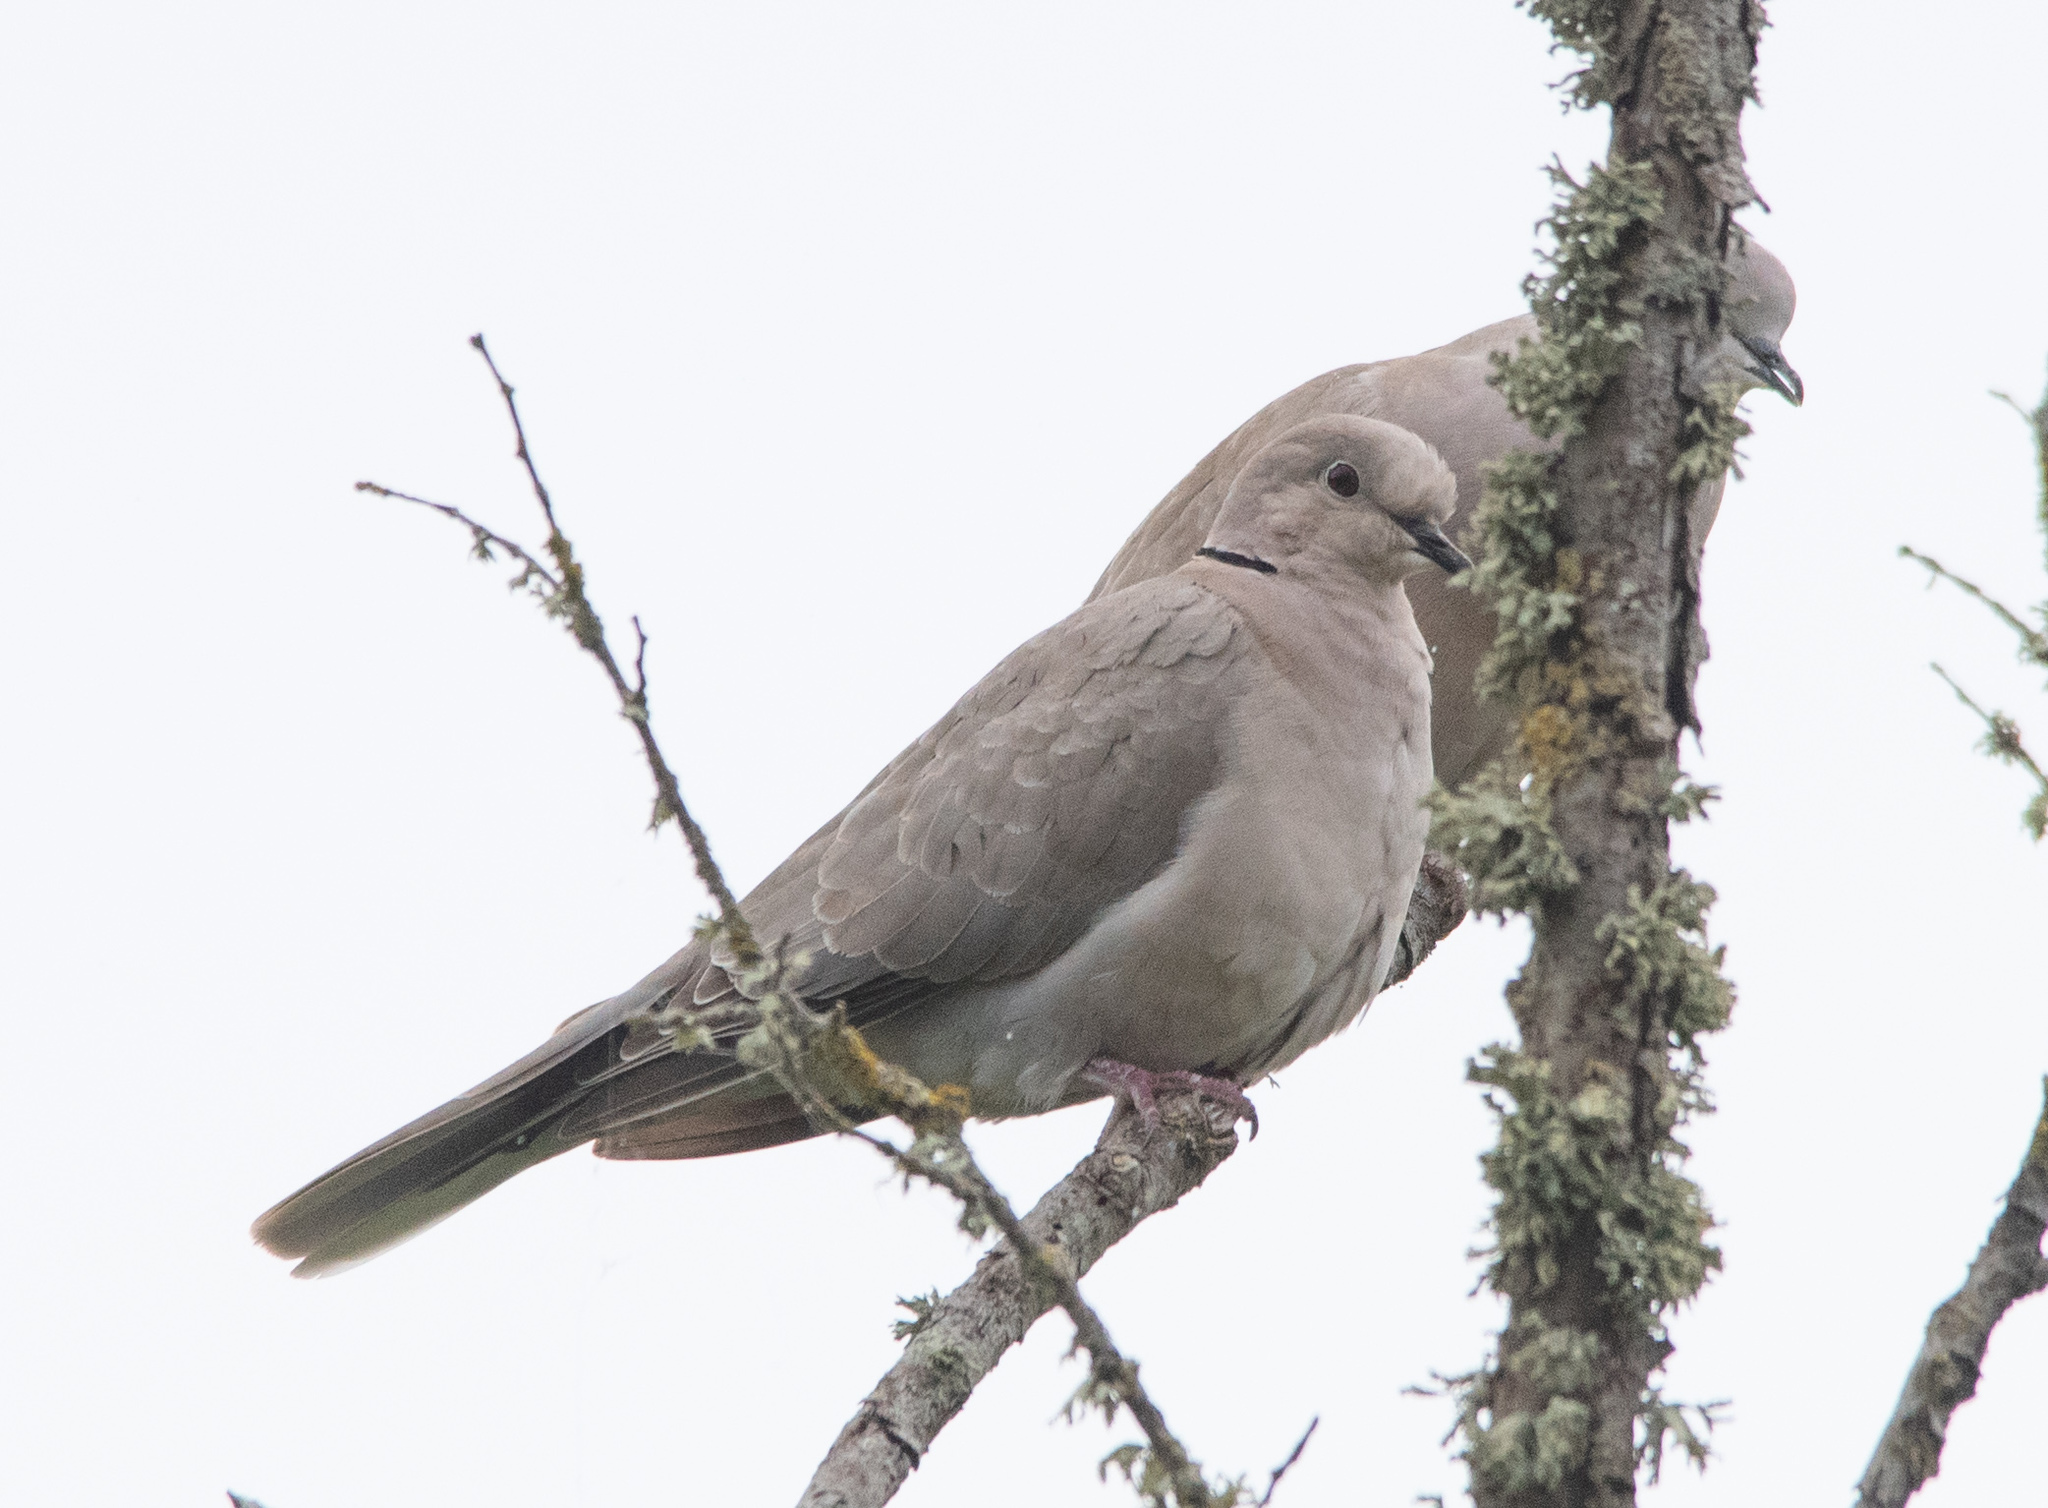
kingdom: Animalia
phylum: Chordata
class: Aves
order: Columbiformes
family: Columbidae
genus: Streptopelia
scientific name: Streptopelia decaocto
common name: Eurasian collared dove
